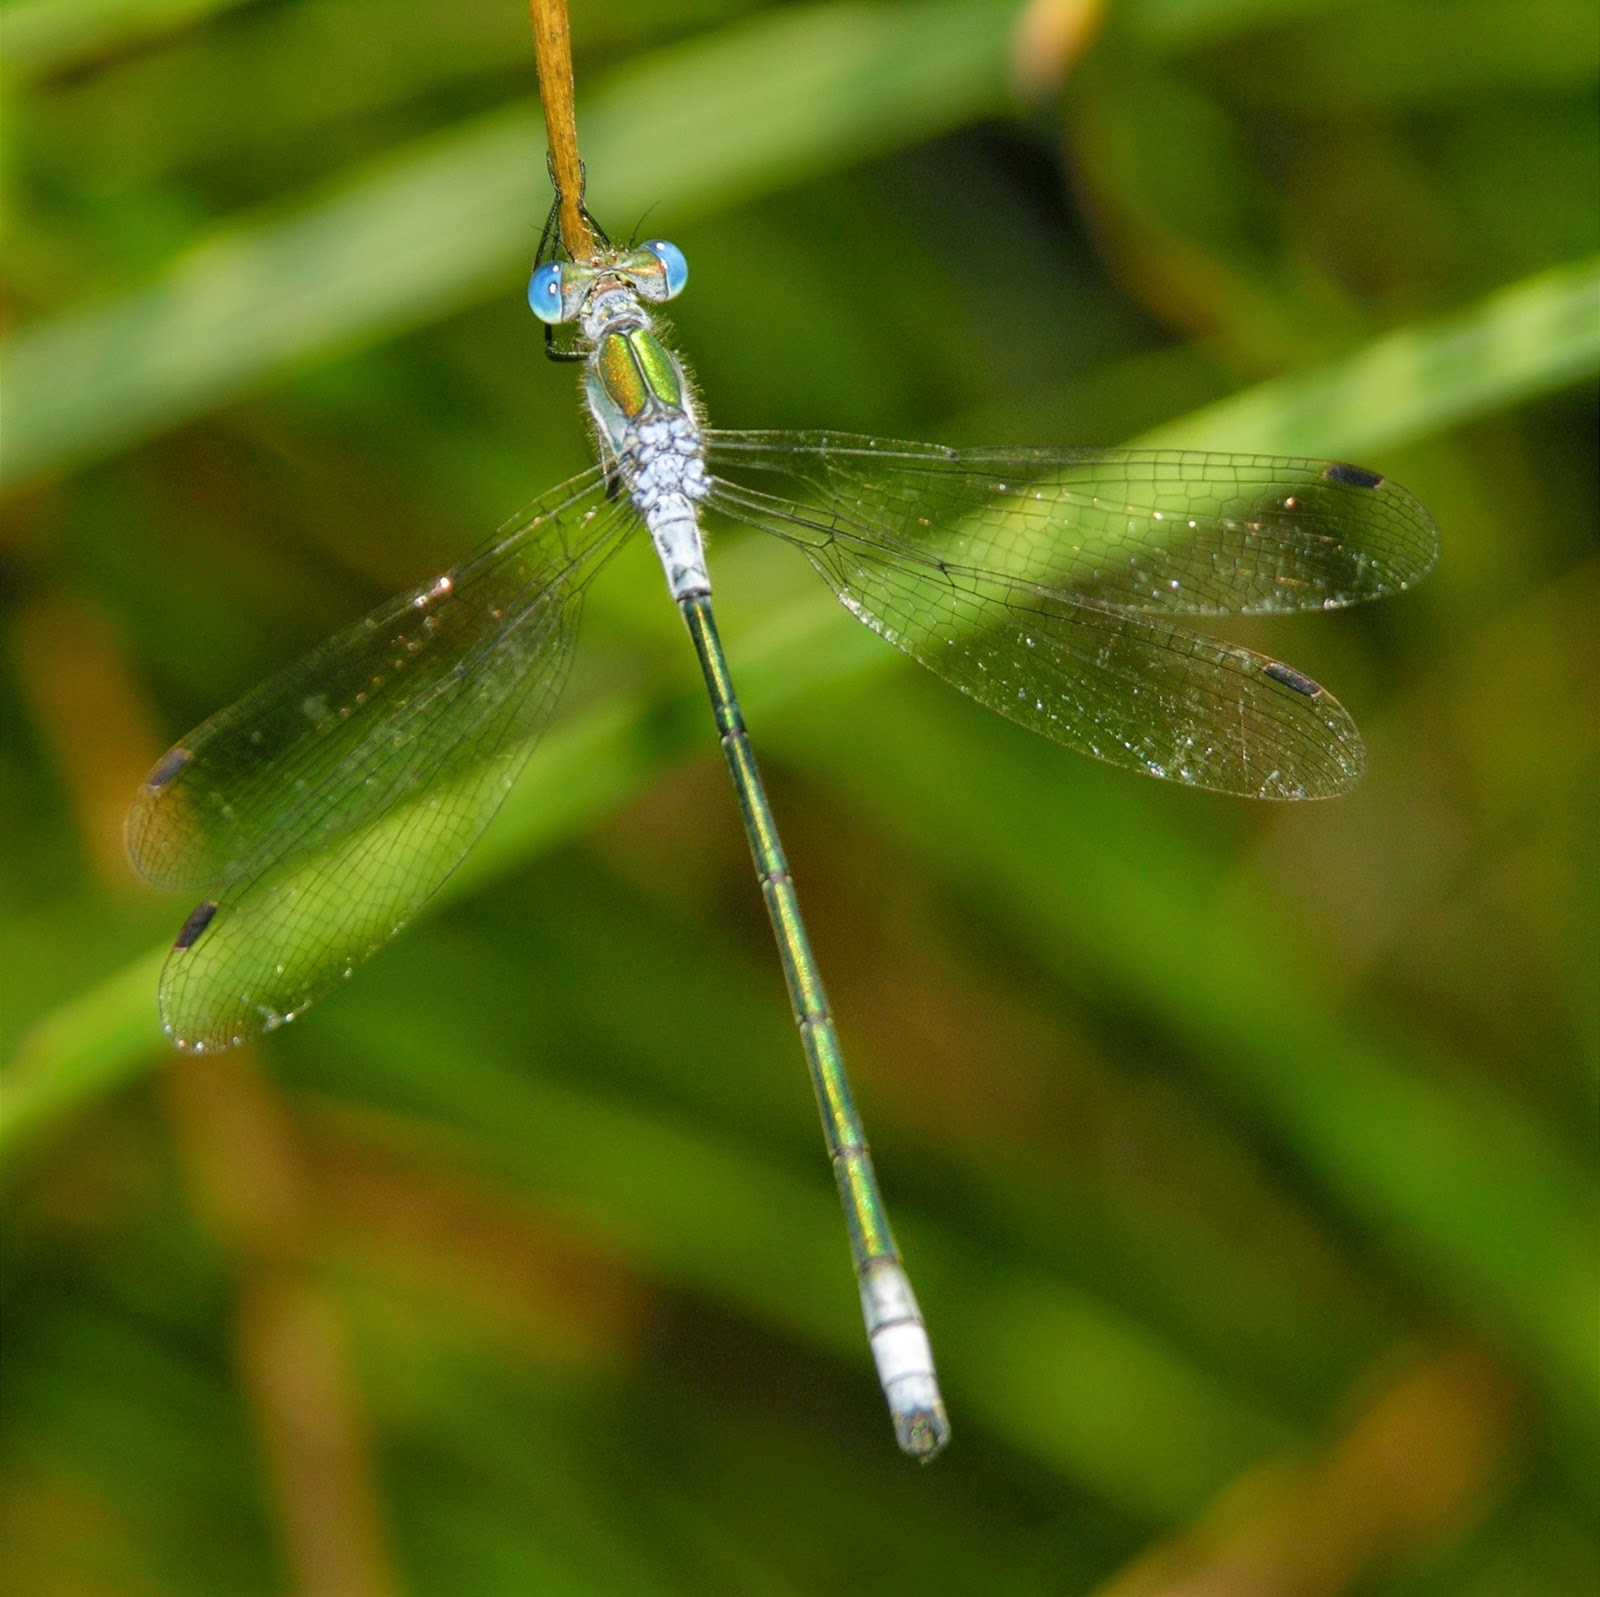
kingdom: Animalia
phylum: Arthropoda
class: Insecta
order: Odonata
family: Lestidae
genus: Lestes
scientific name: Lestes sponsa
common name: Common spreadwing
